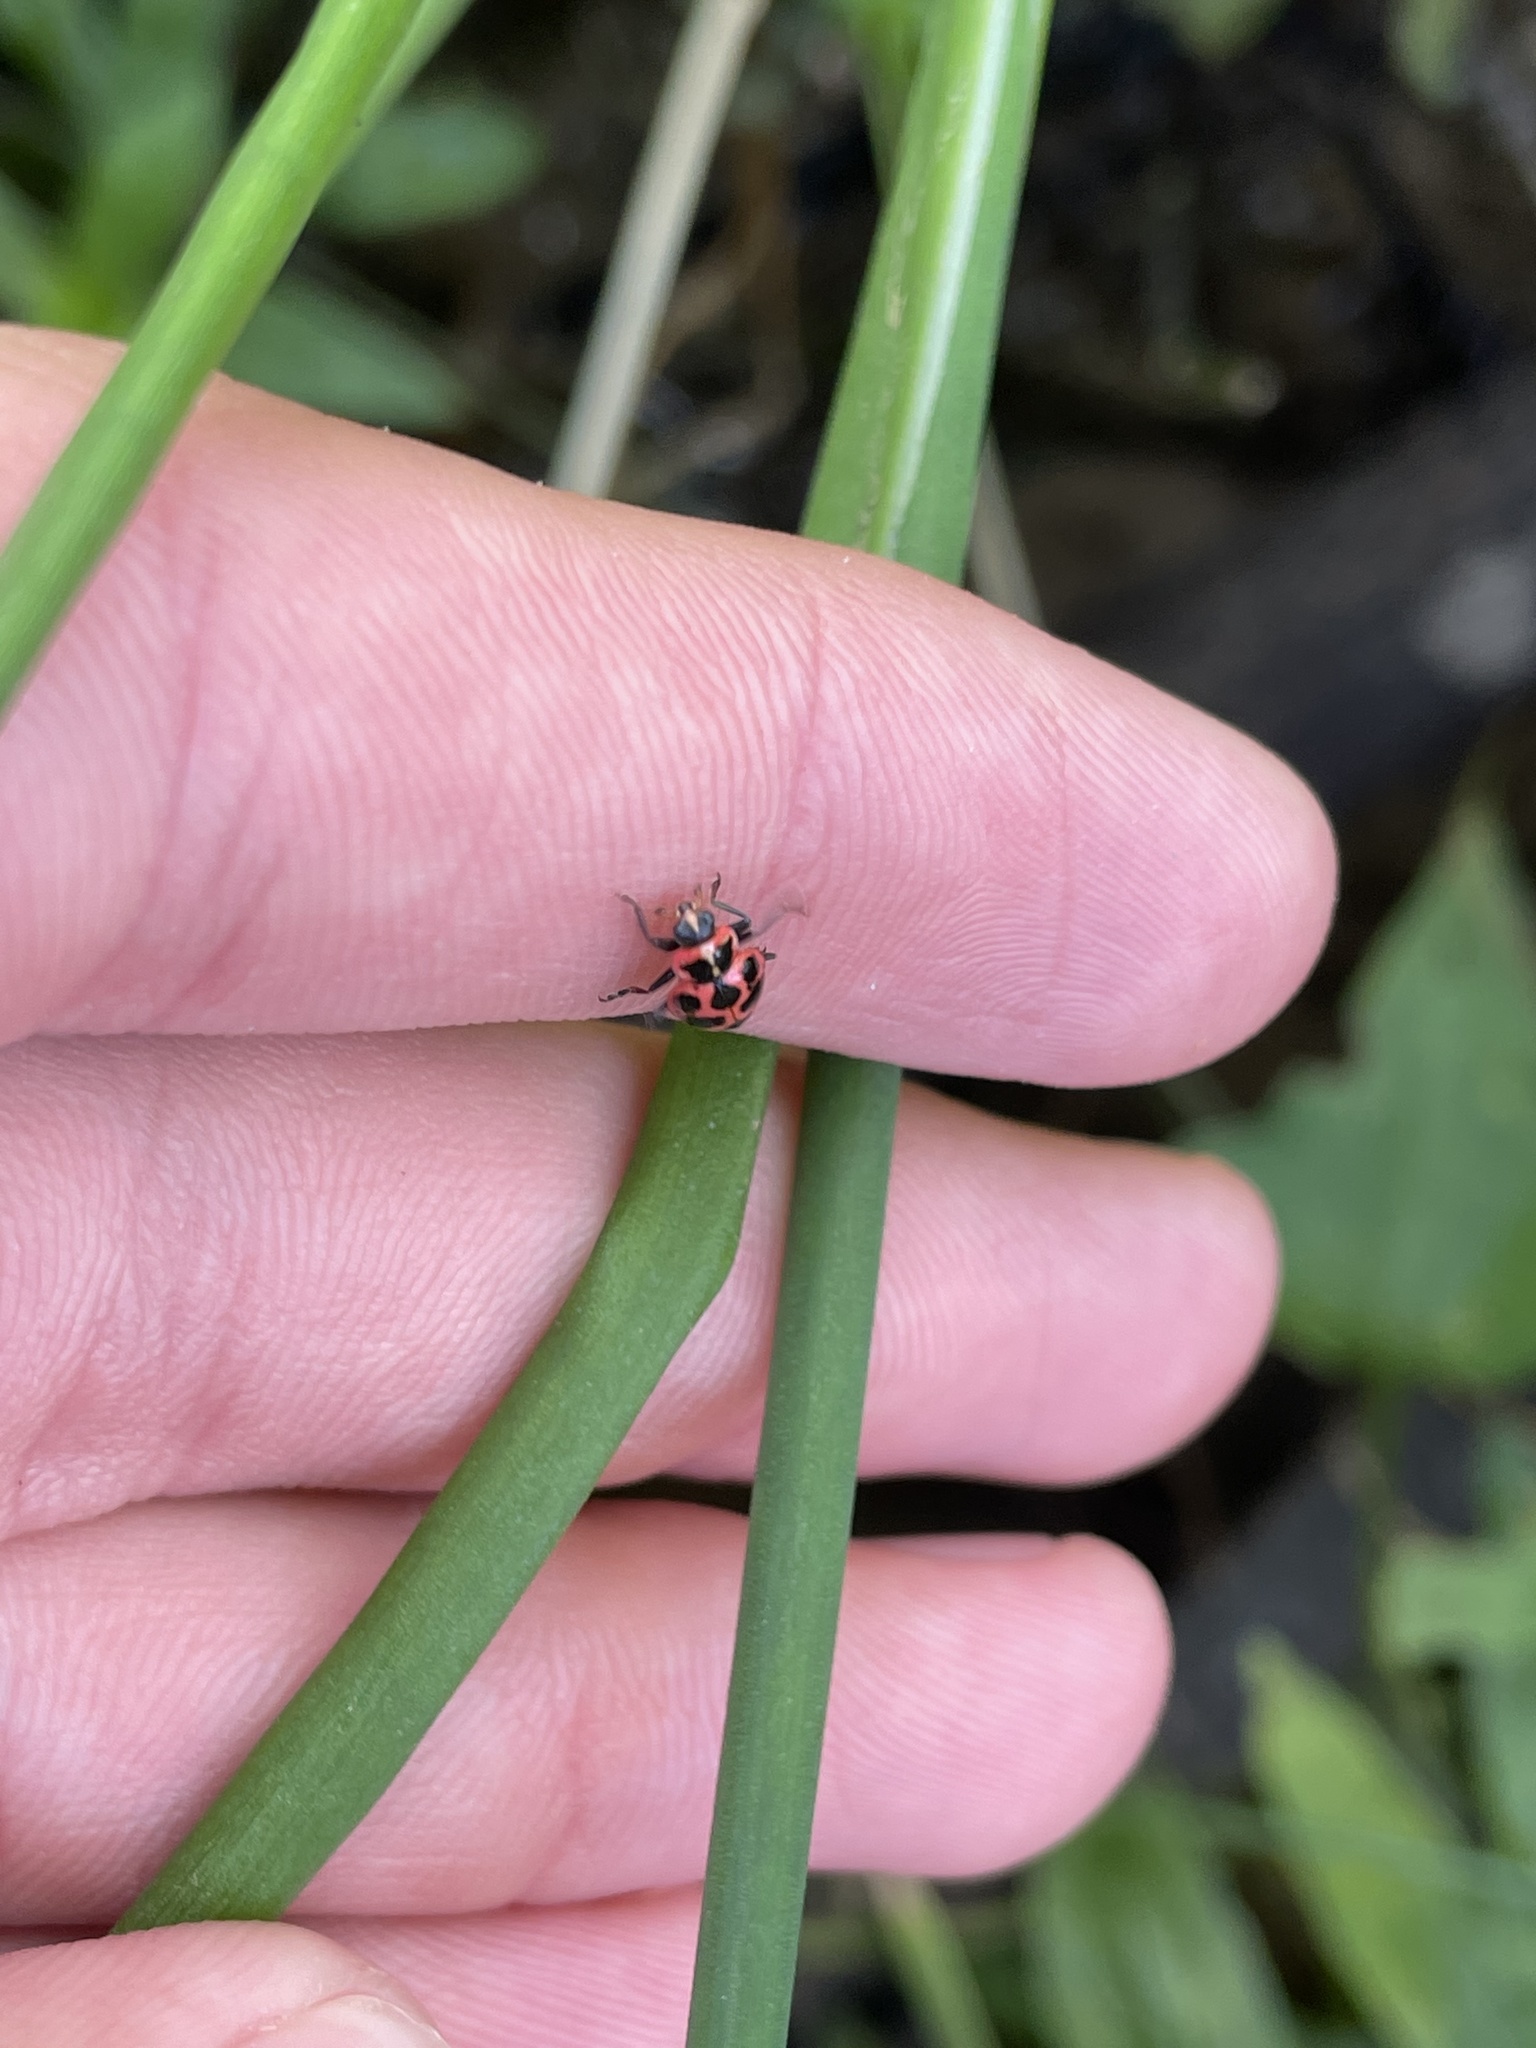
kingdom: Animalia
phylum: Arthropoda
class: Insecta
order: Coleoptera
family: Coccinellidae
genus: Coleomegilla
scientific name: Coleomegilla maculata
